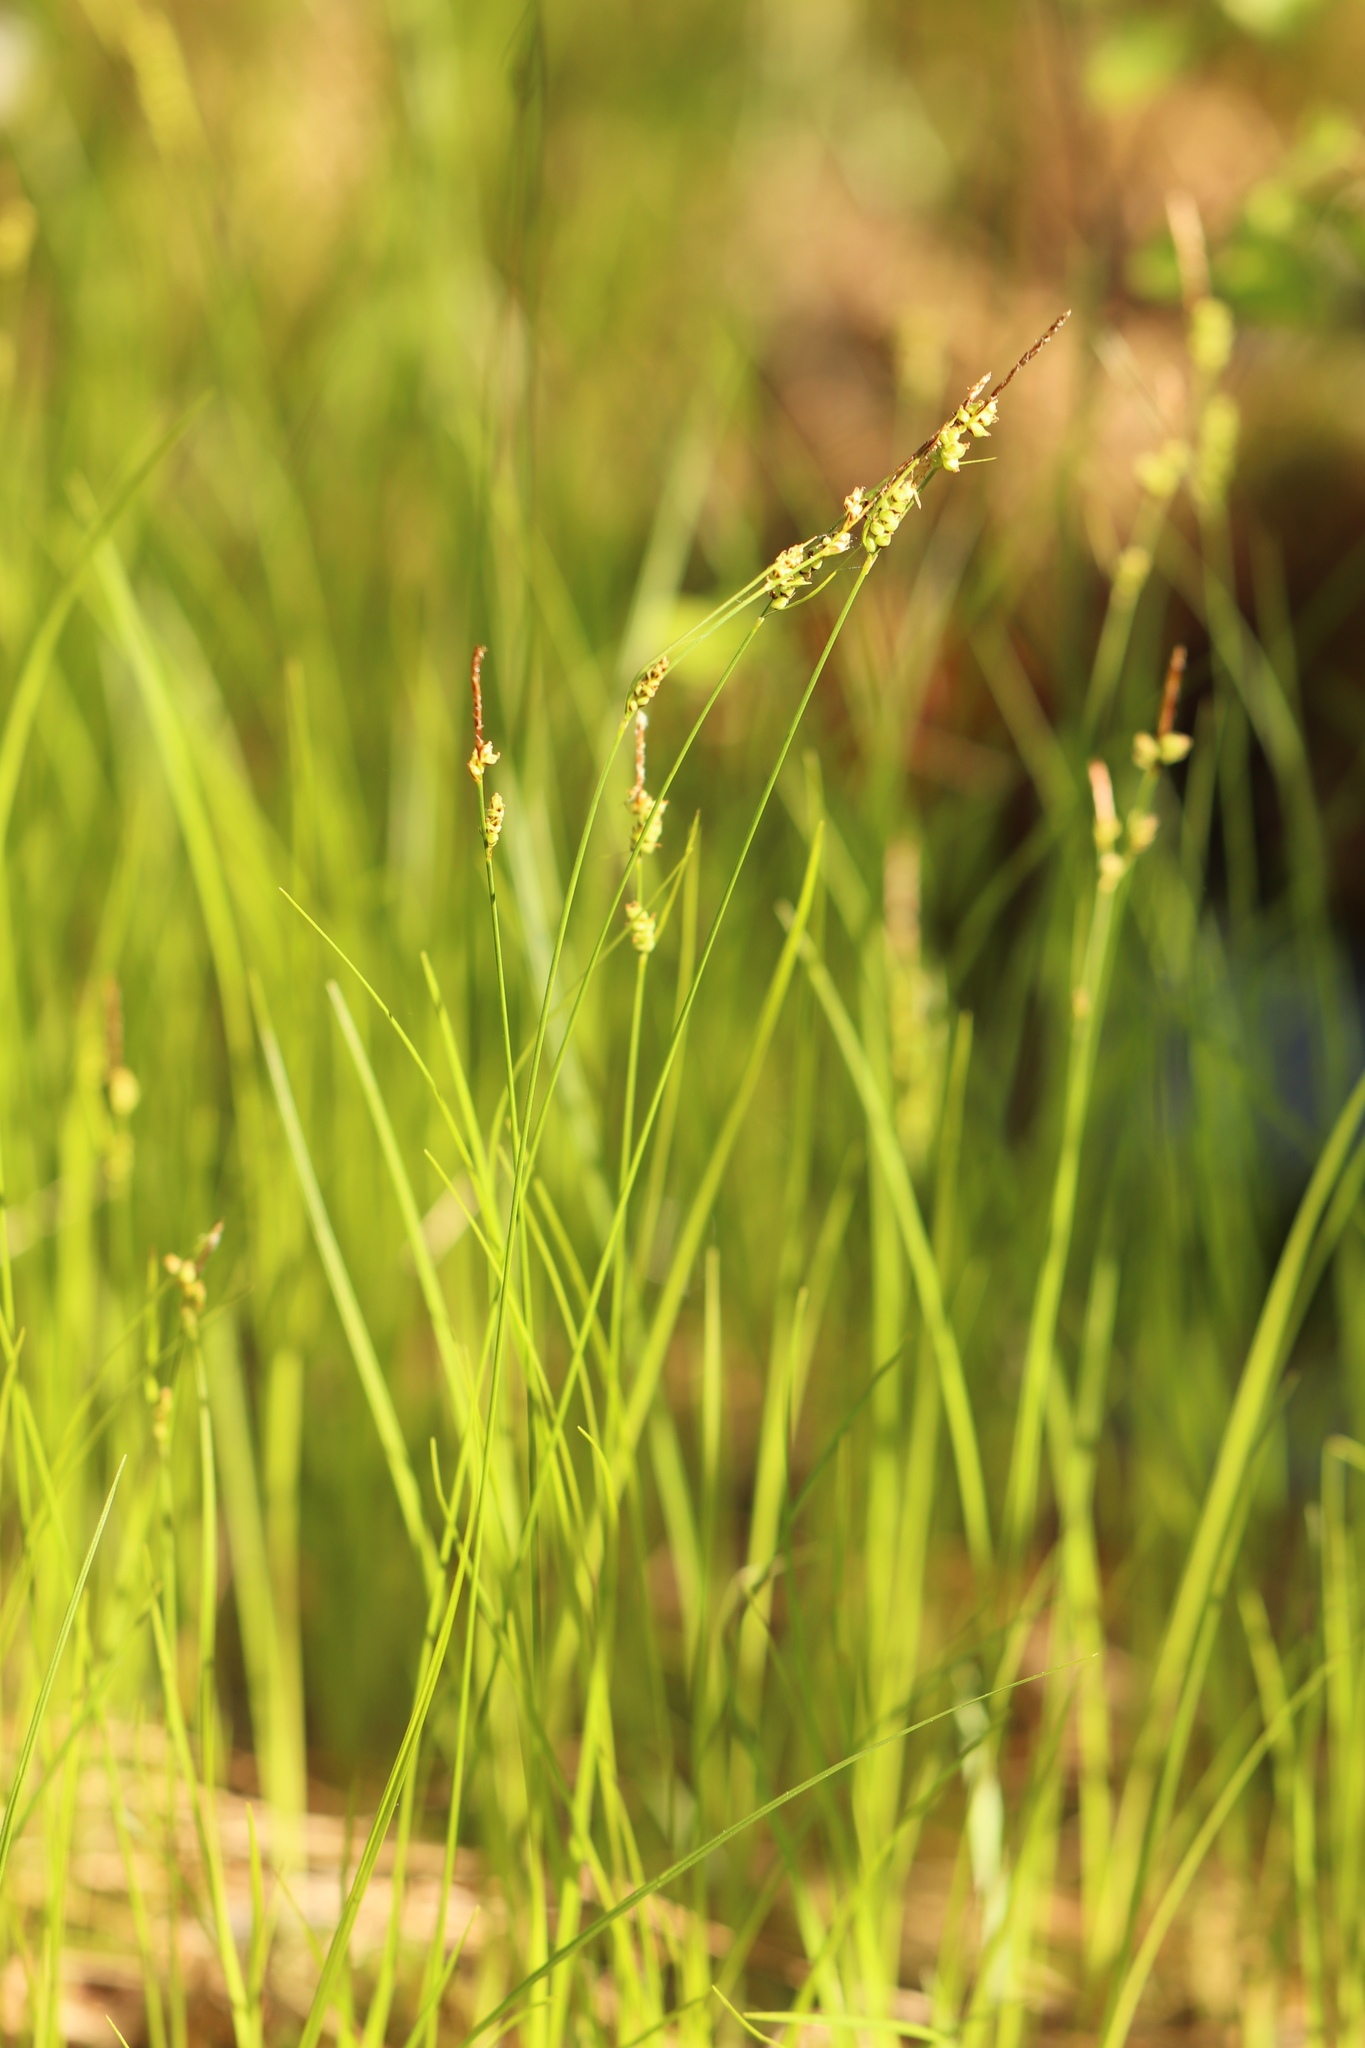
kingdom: Plantae
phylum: Tracheophyta
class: Liliopsida
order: Poales
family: Cyperaceae
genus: Carex
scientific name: Carex globularis
